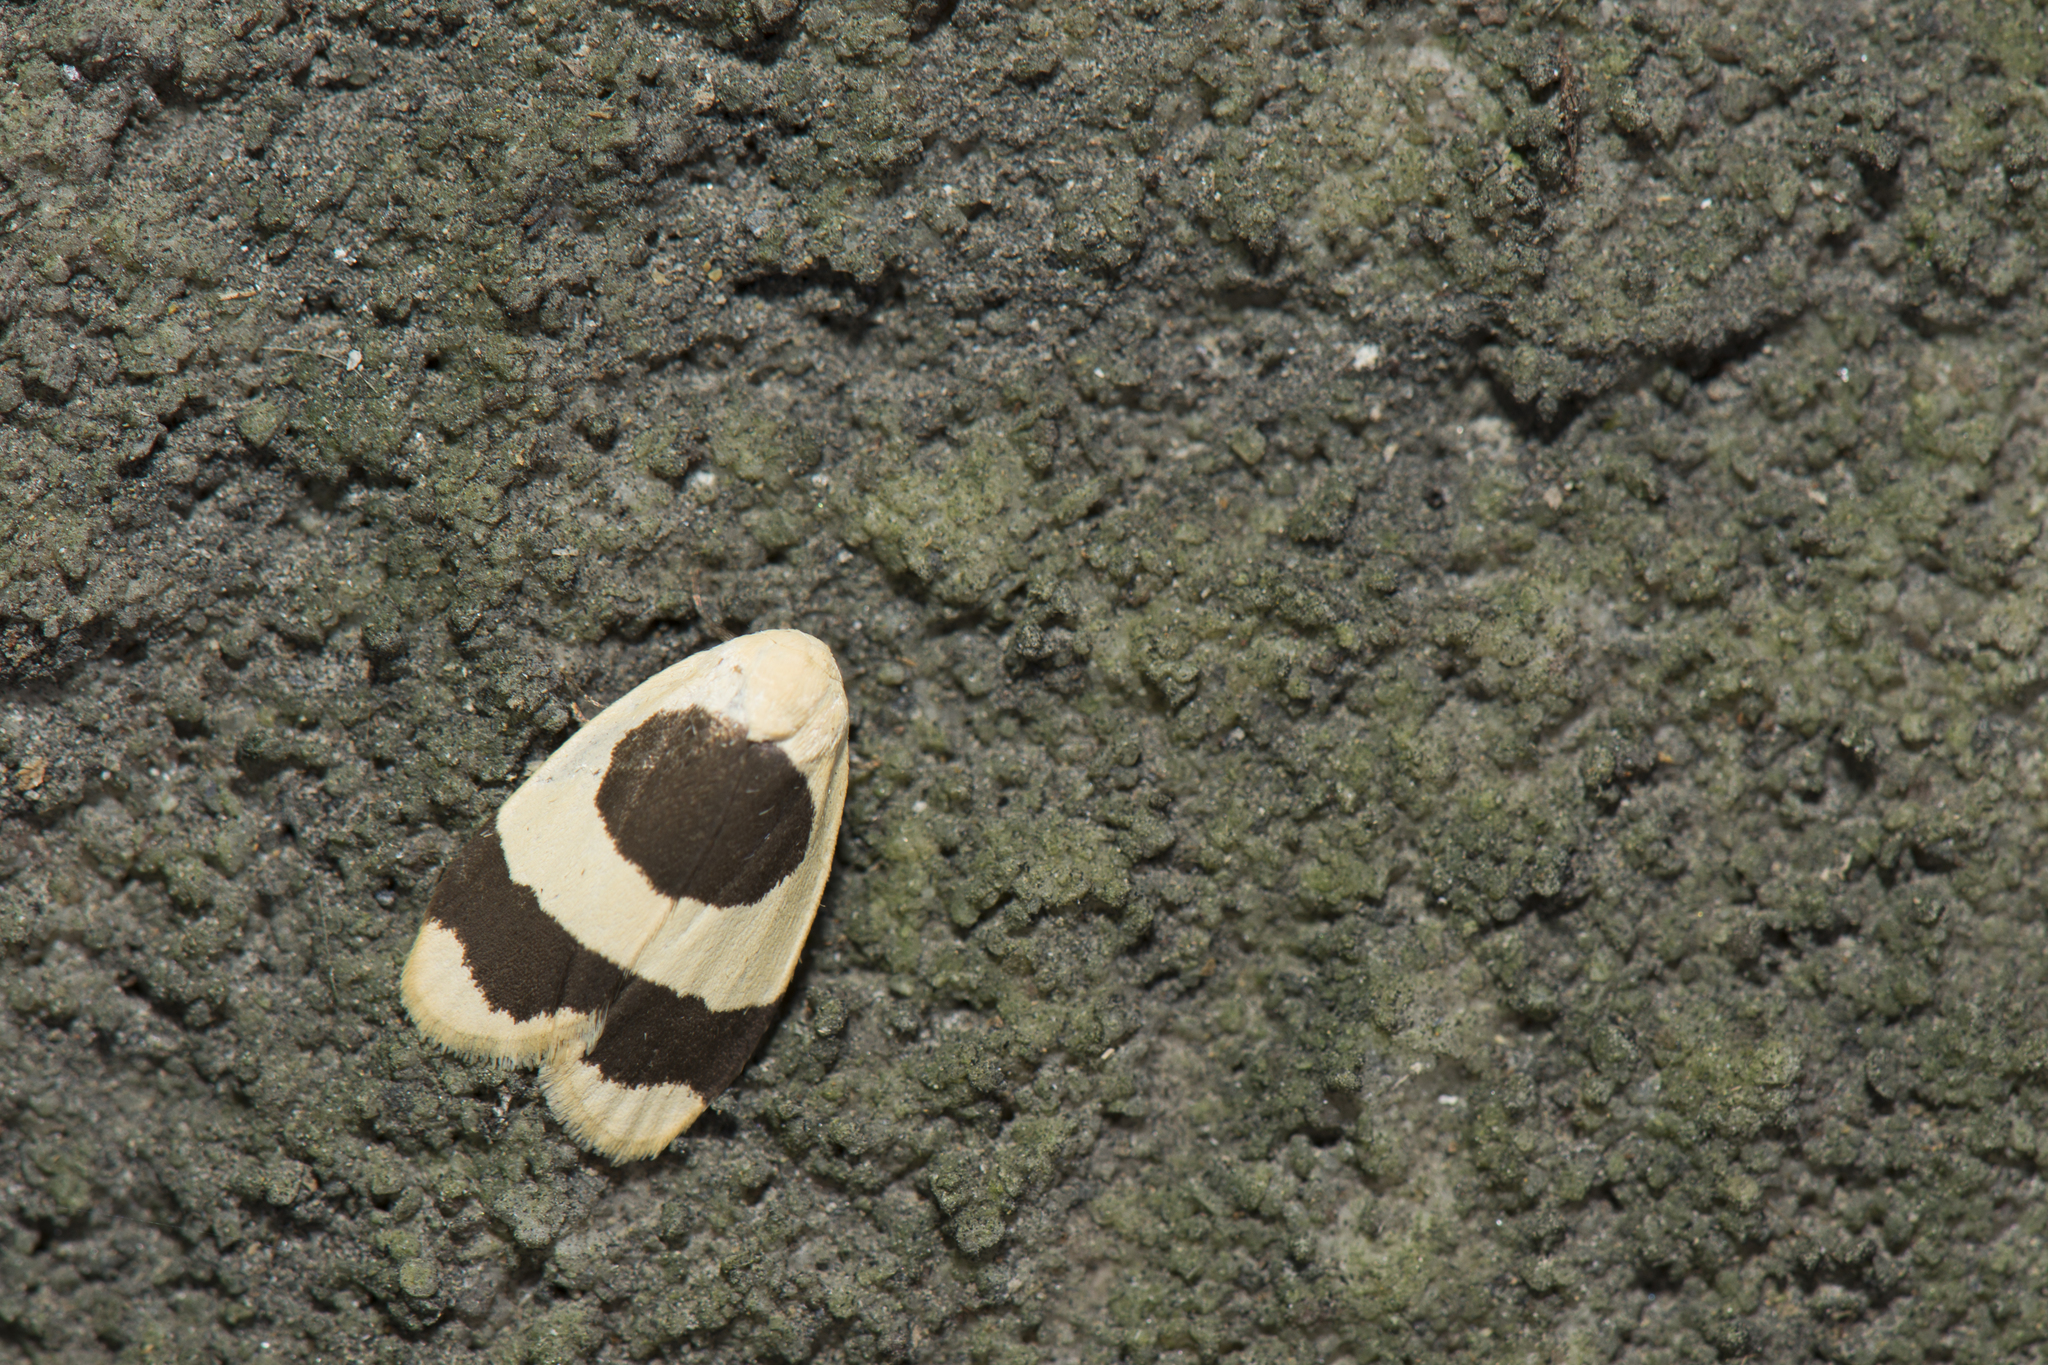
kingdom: Animalia
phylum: Arthropoda
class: Insecta
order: Lepidoptera
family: Erebidae
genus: Garudinia
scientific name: Garudinia taioana
